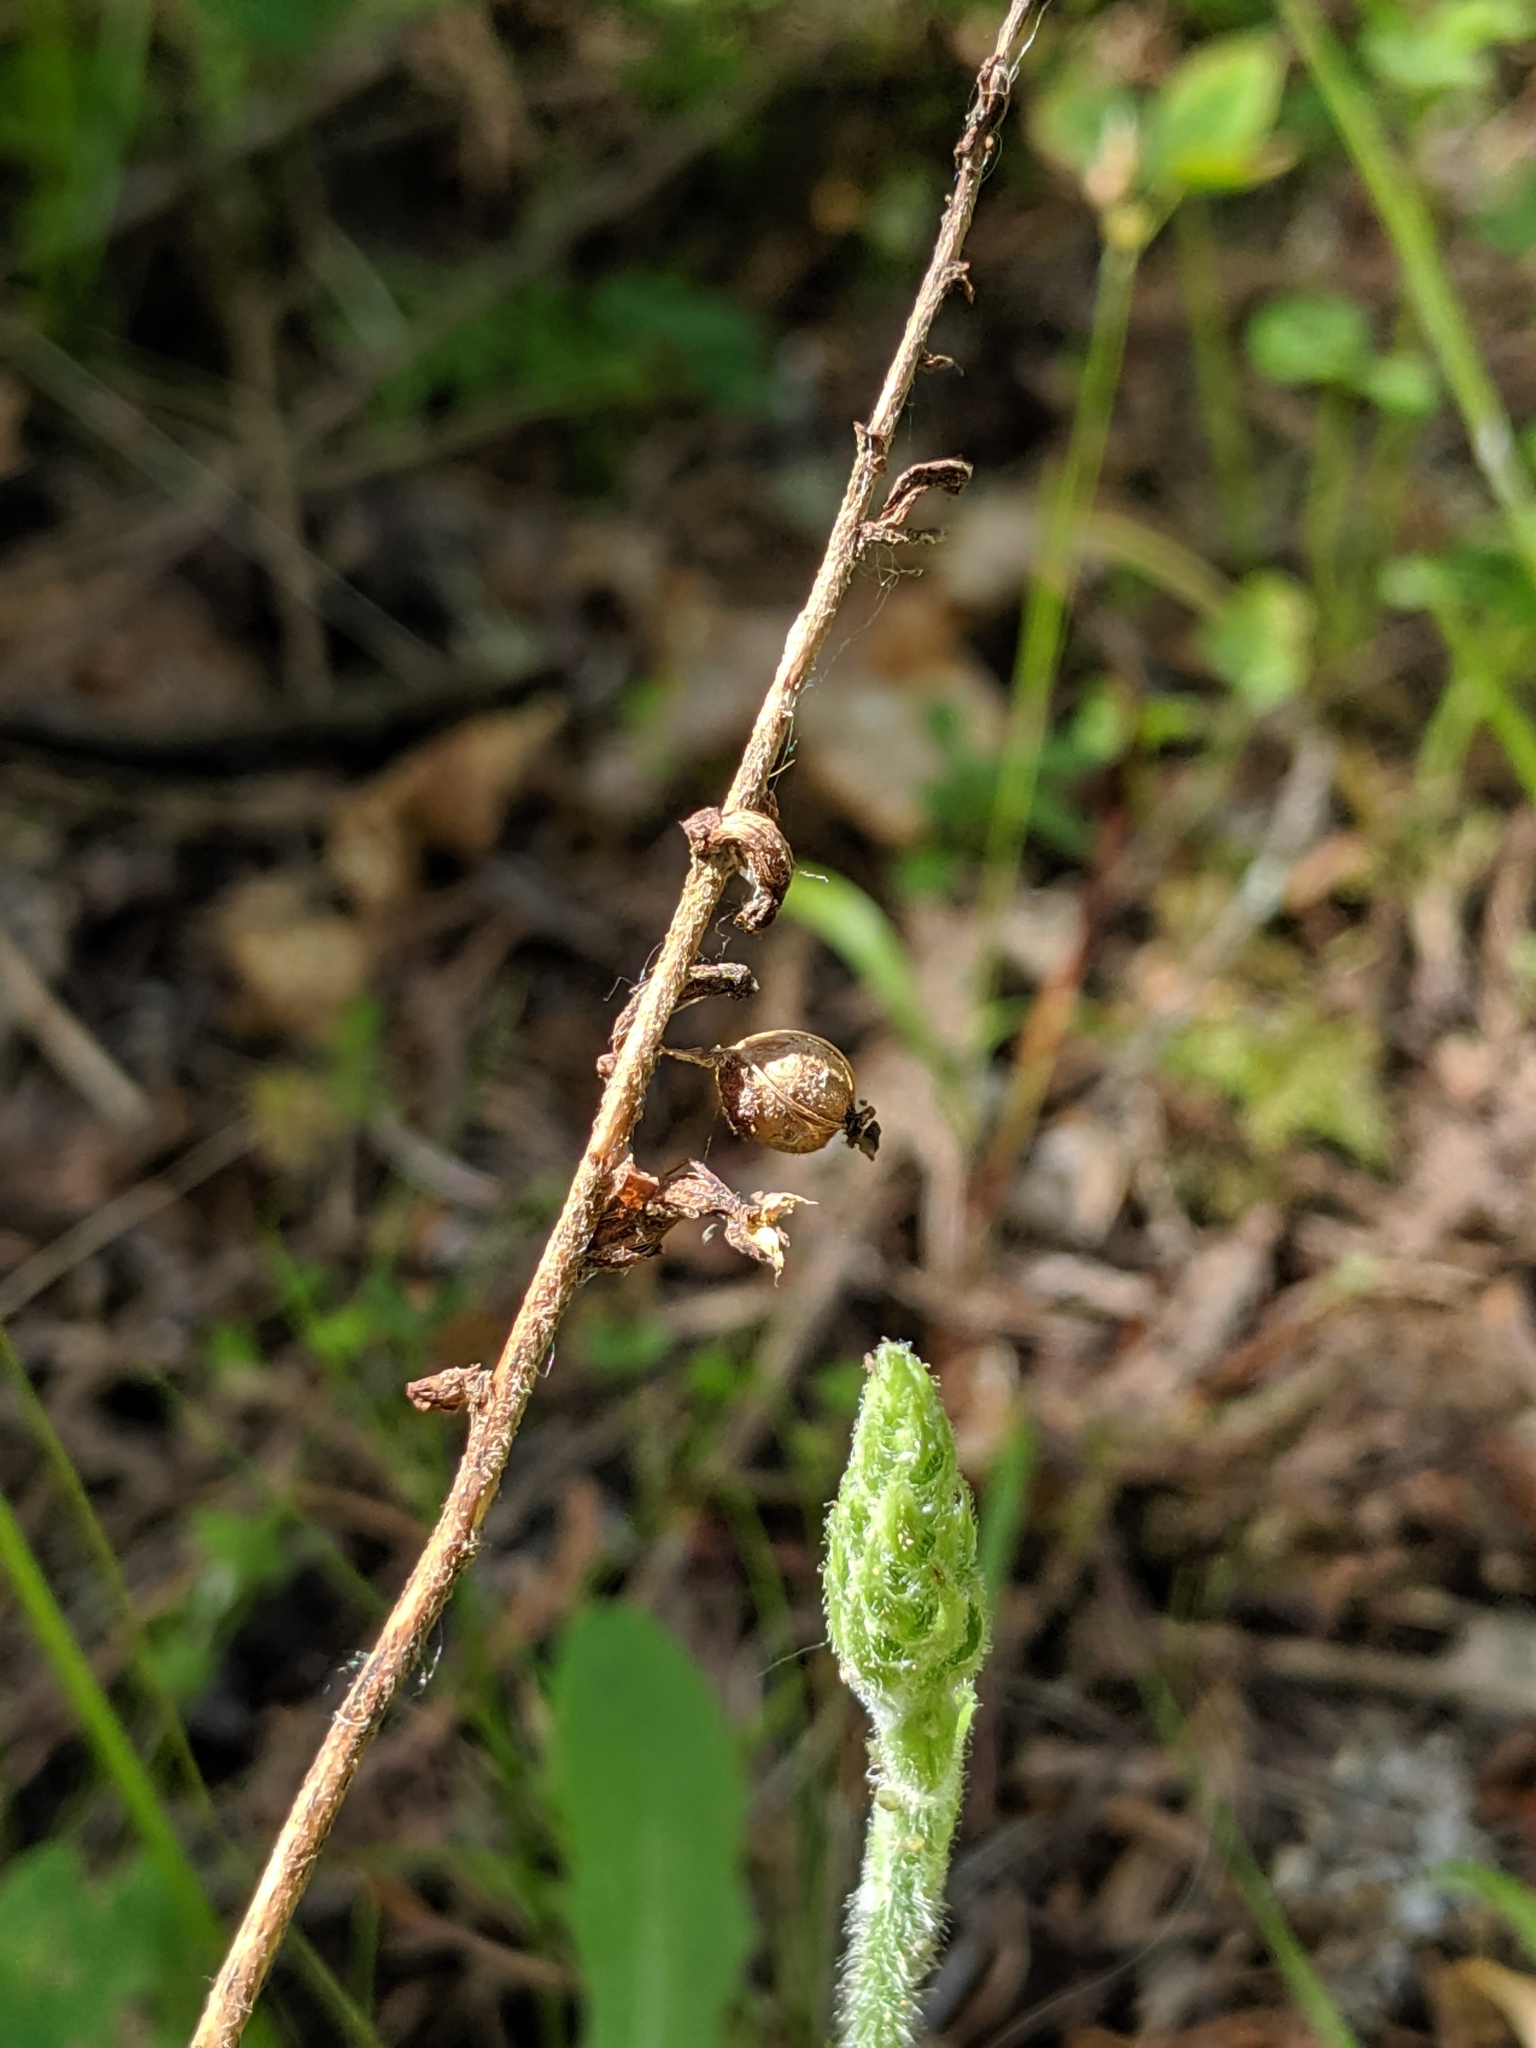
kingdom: Plantae
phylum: Tracheophyta
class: Liliopsida
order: Asparagales
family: Orchidaceae
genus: Goodyera
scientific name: Goodyera oblongifolia
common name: Giant rattlesnake-plantain
